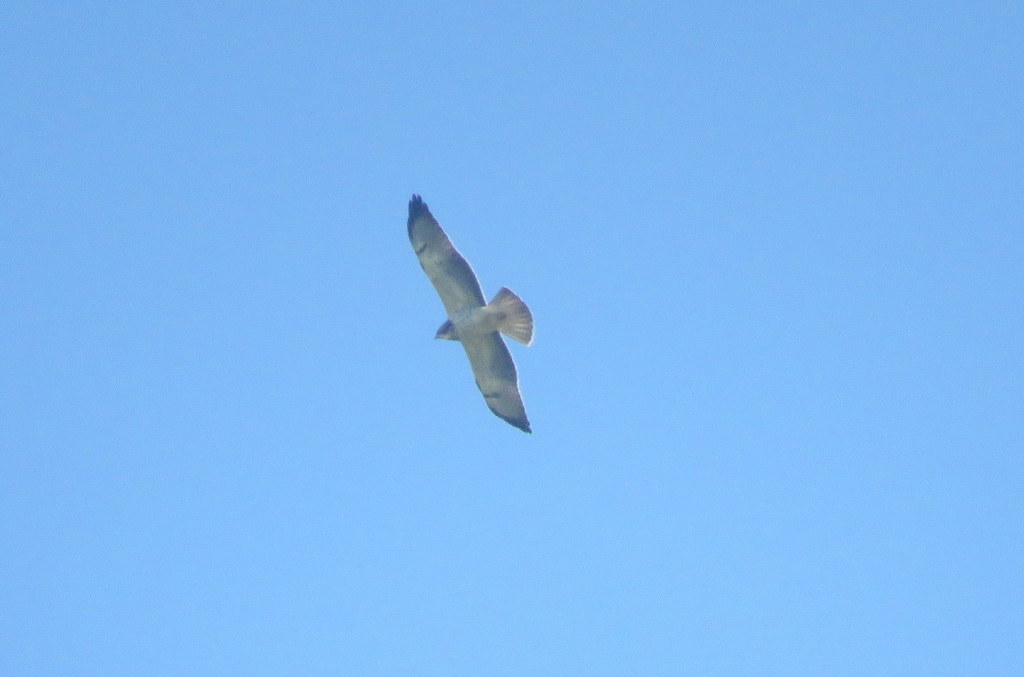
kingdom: Animalia
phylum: Chordata
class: Aves
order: Accipitriformes
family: Accipitridae
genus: Buteo
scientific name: Buteo swainsoni
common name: Swainson's hawk
